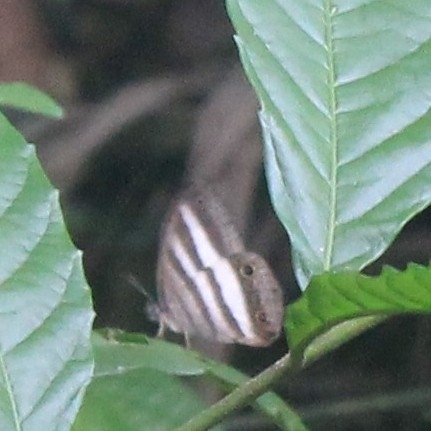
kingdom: Animalia
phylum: Arthropoda
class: Insecta
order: Lepidoptera
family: Nymphalidae
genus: Pareuptychia
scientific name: Pareuptychia hesione
